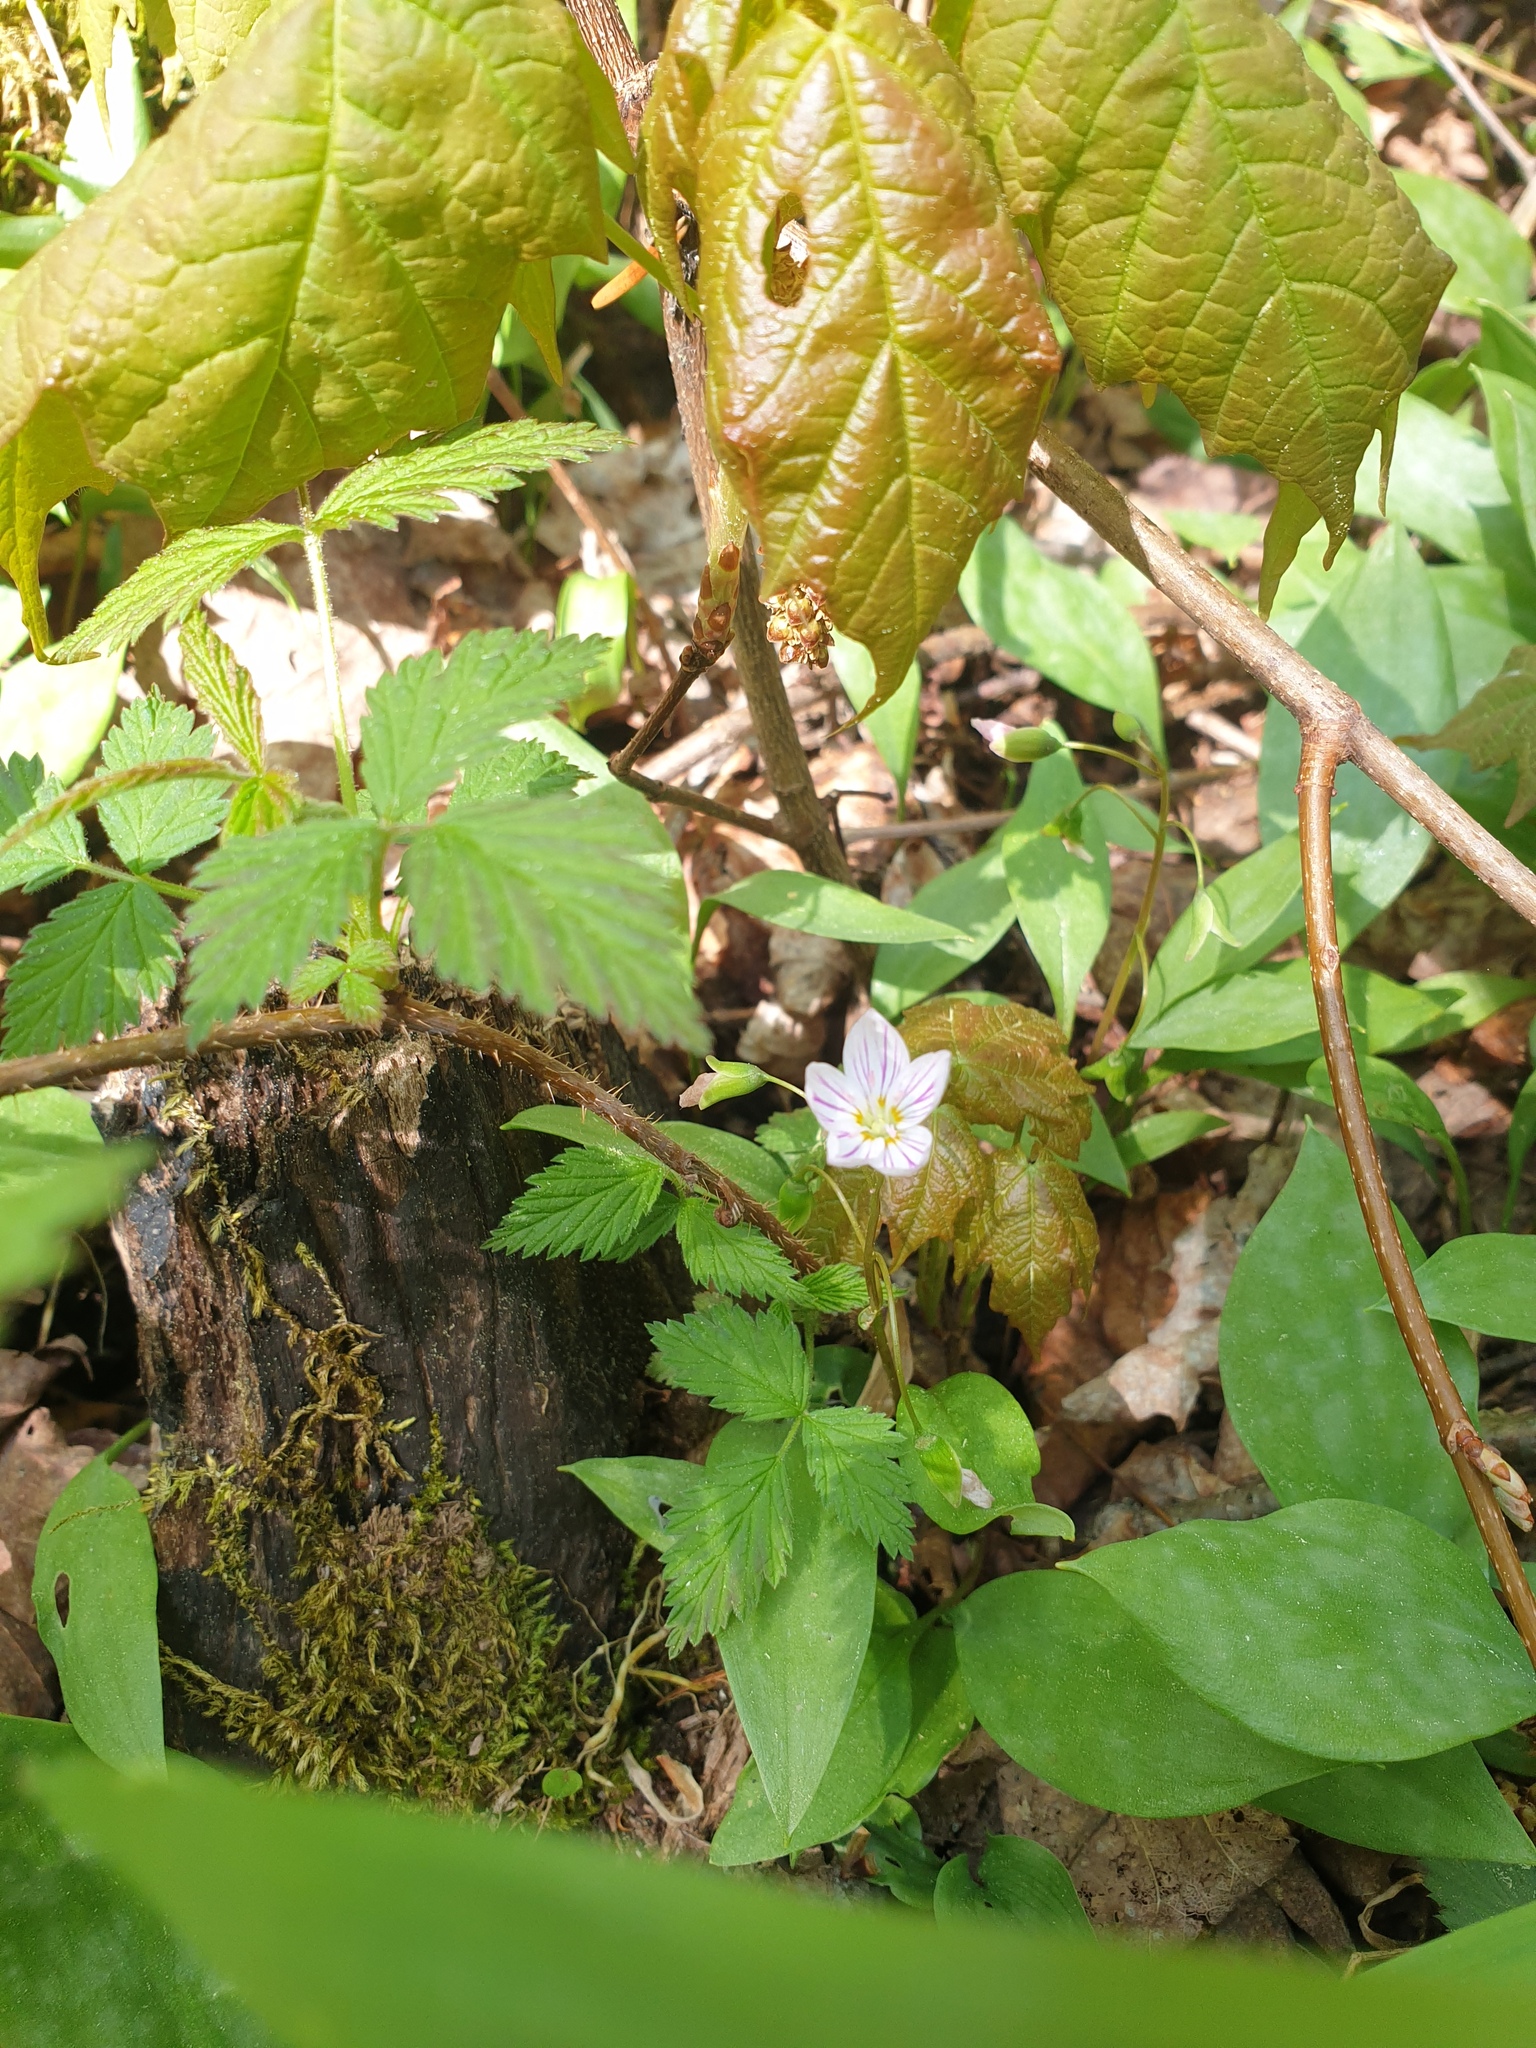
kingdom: Plantae
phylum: Tracheophyta
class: Magnoliopsida
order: Caryophyllales
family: Montiaceae
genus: Claytonia
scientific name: Claytonia caroliniana
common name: Carolina spring beauty
